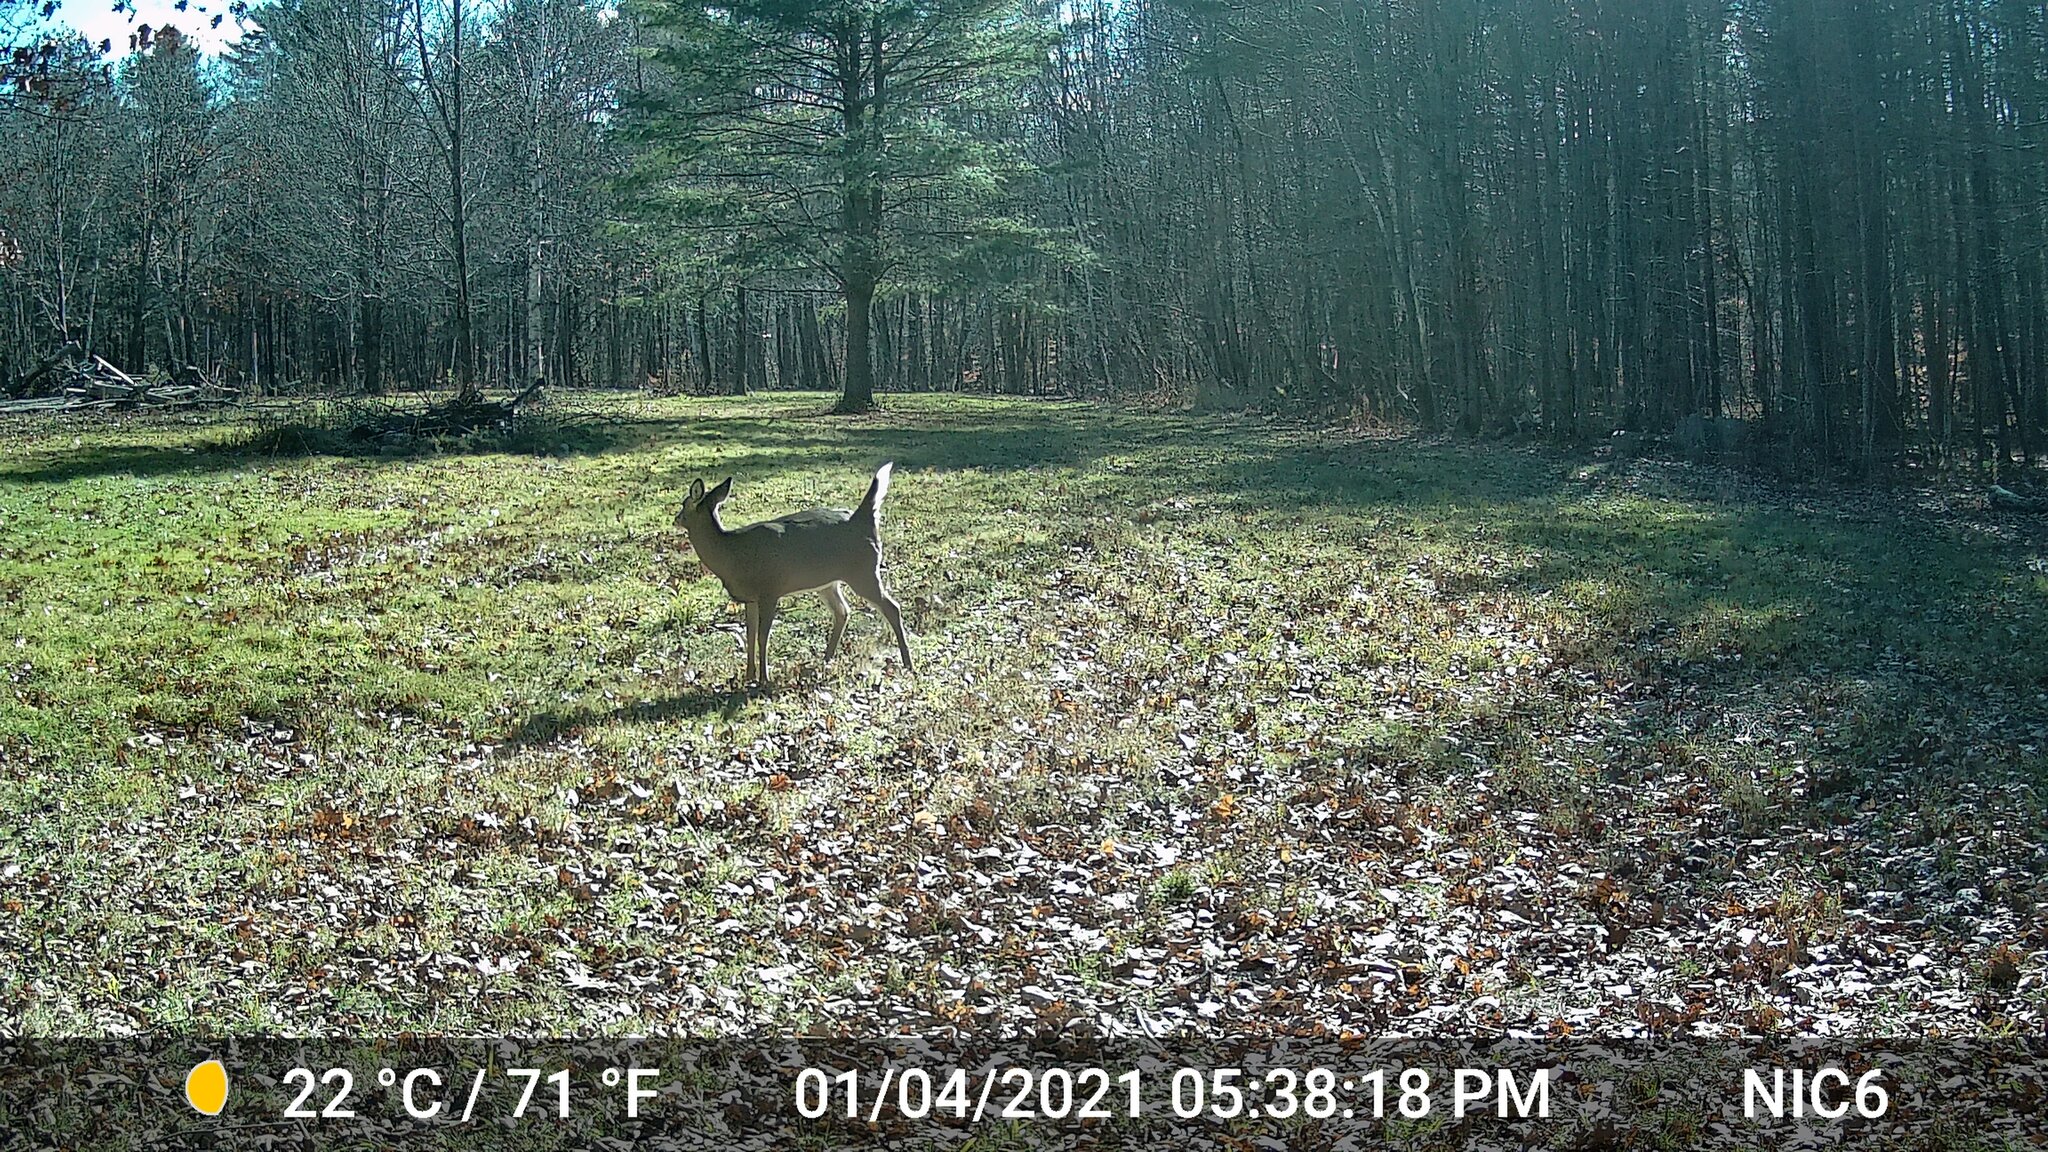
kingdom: Animalia
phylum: Chordata
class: Mammalia
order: Artiodactyla
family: Cervidae
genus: Odocoileus
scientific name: Odocoileus virginianus
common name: White-tailed deer
